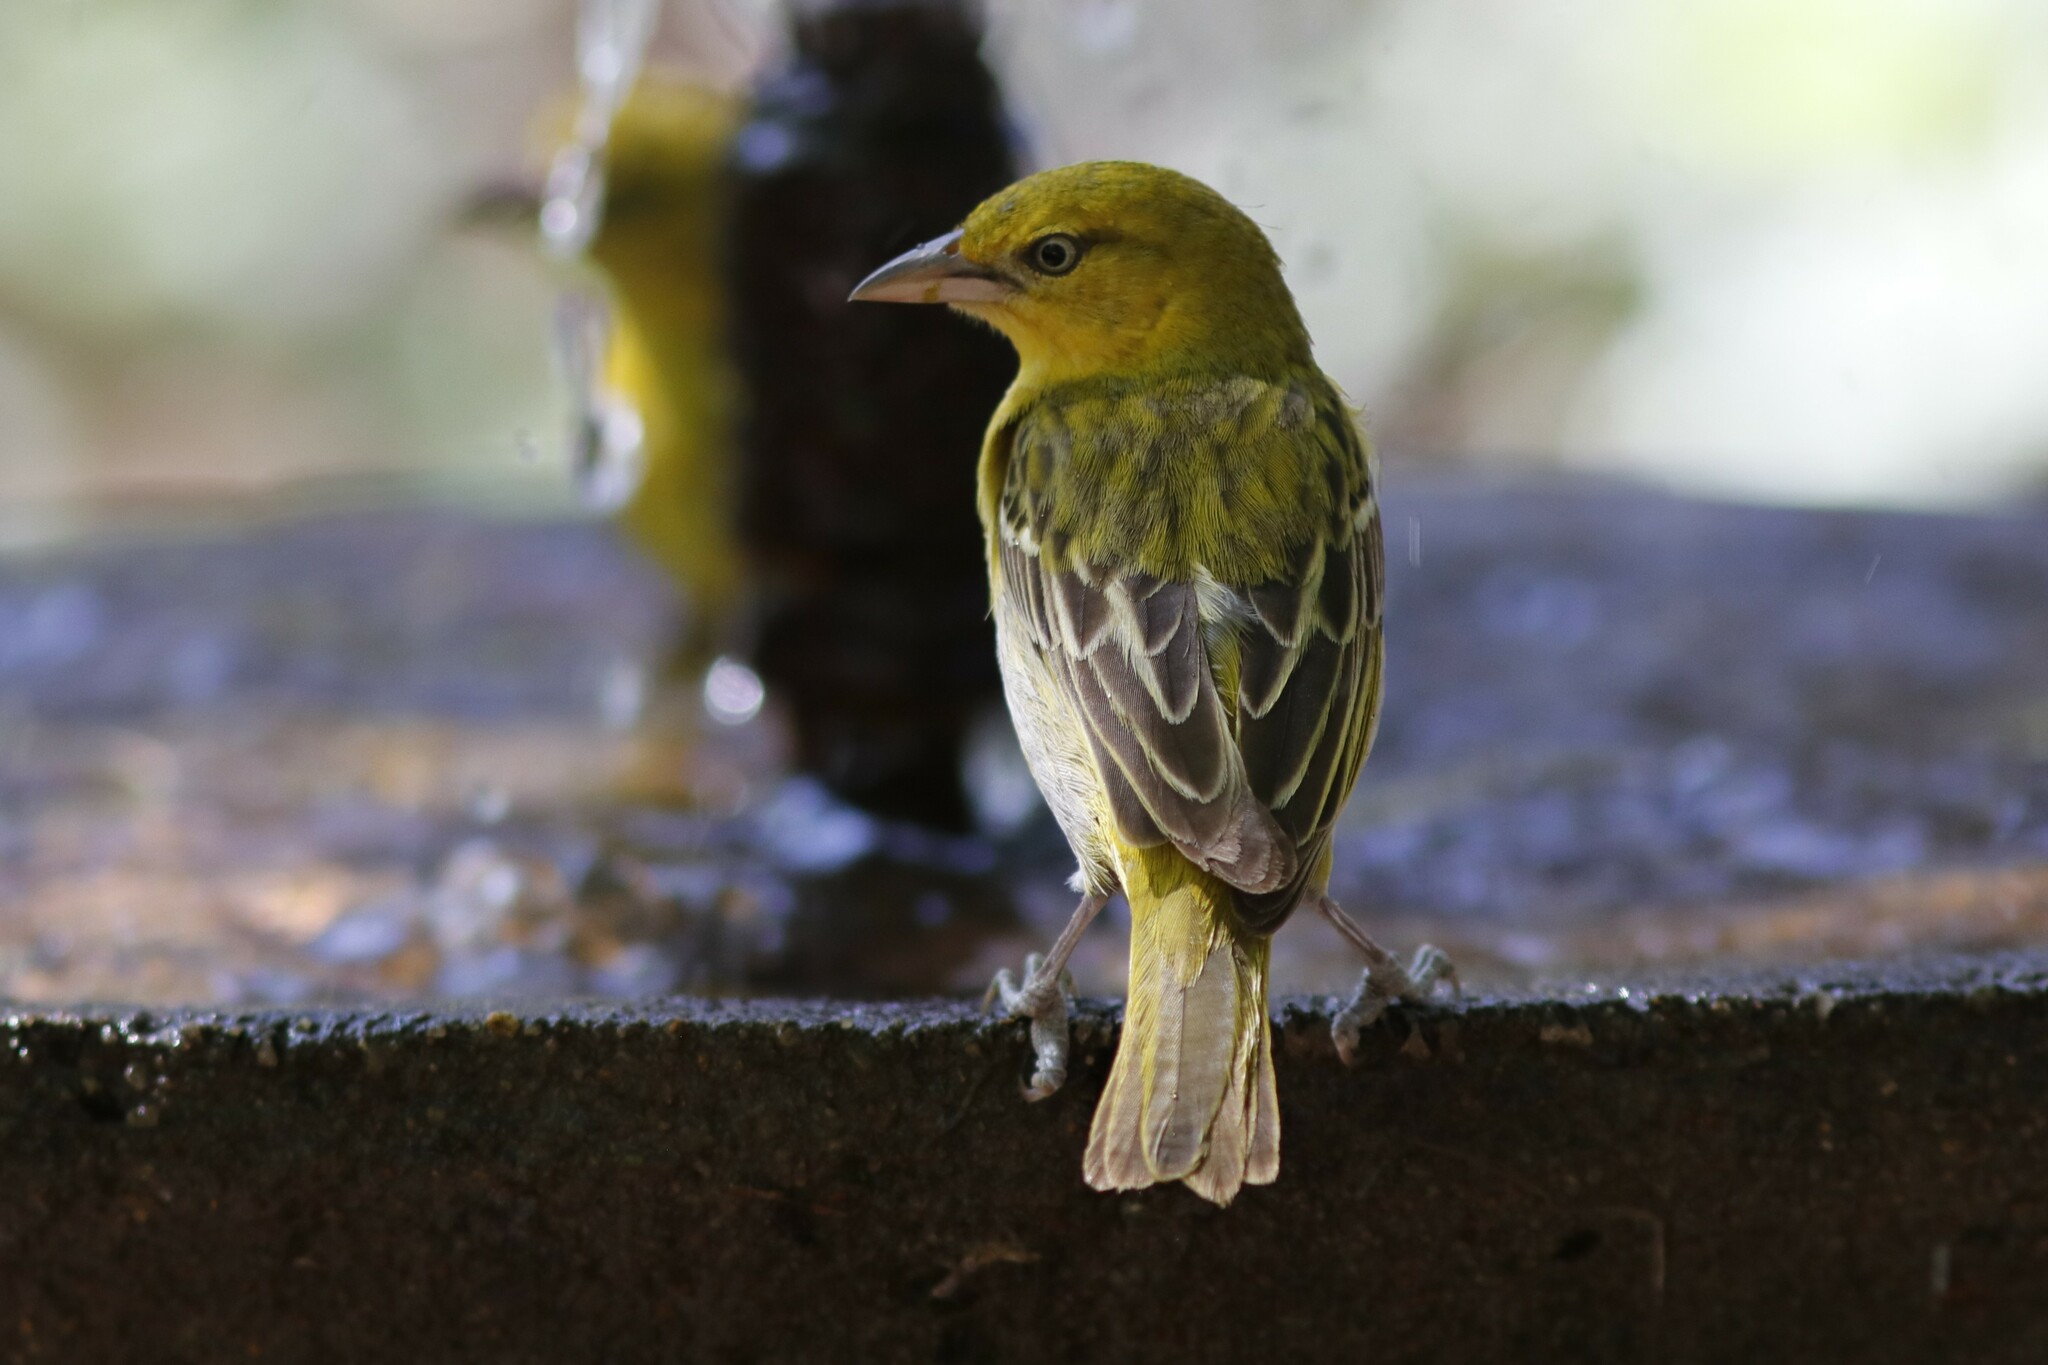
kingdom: Animalia
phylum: Chordata
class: Aves
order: Passeriformes
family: Ploceidae
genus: Ploceus
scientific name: Ploceus intermedius
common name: Lesser masked weaver
